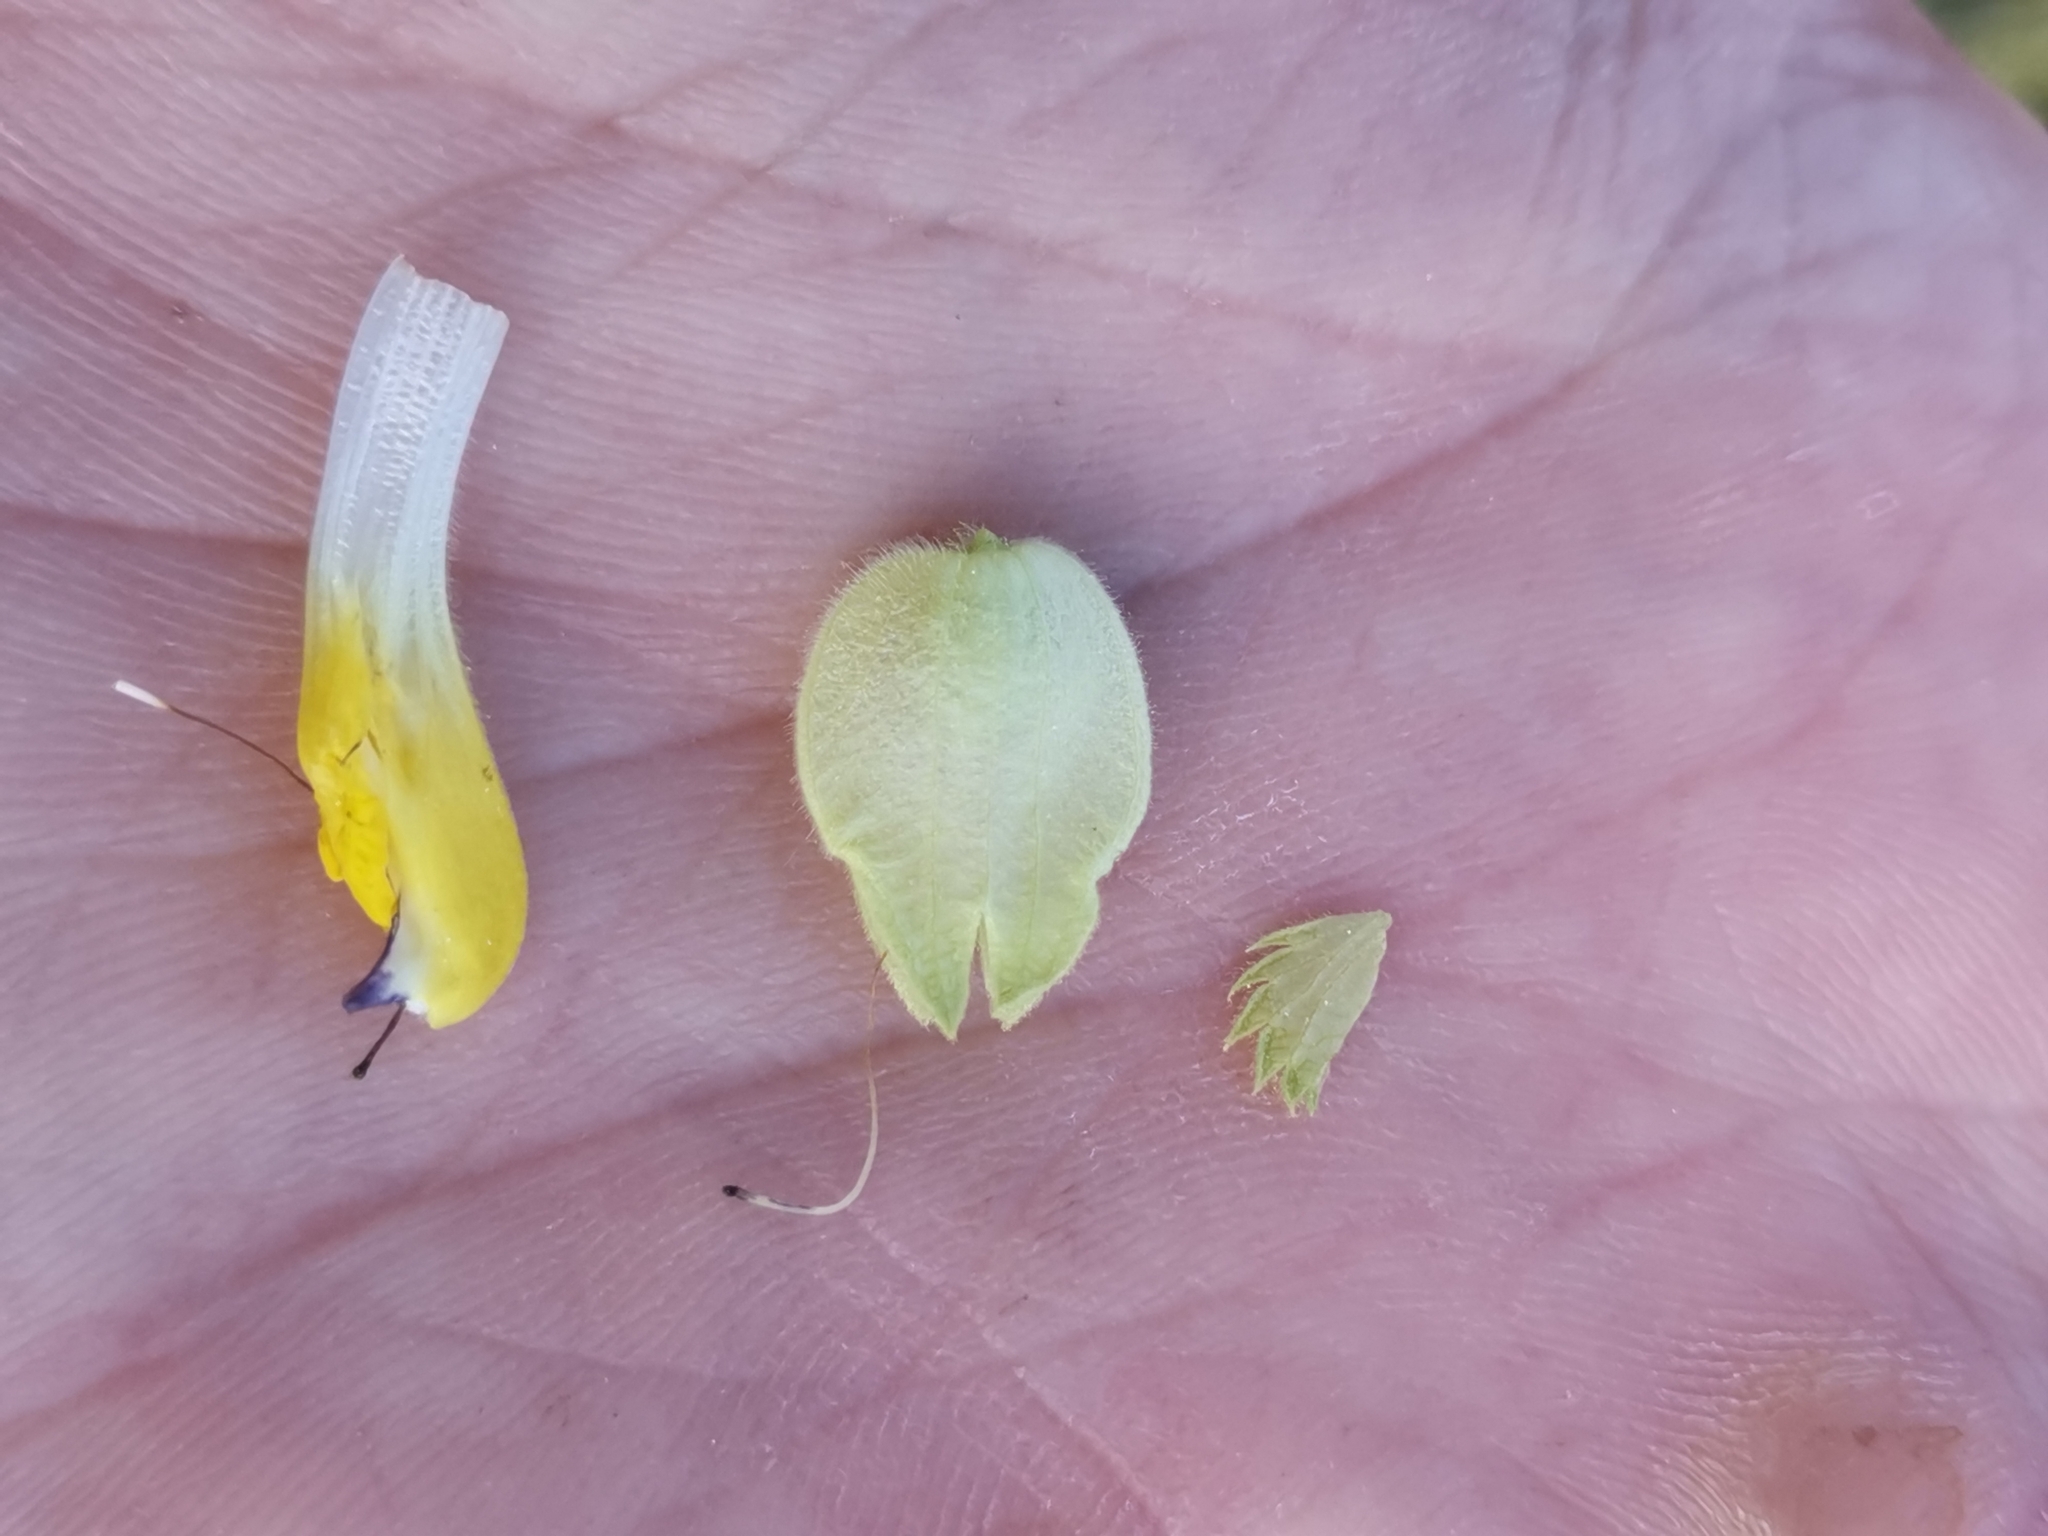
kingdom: Plantae
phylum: Tracheophyta
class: Magnoliopsida
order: Lamiales
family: Orobanchaceae
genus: Rhinanthus
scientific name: Rhinanthus rumelicus
